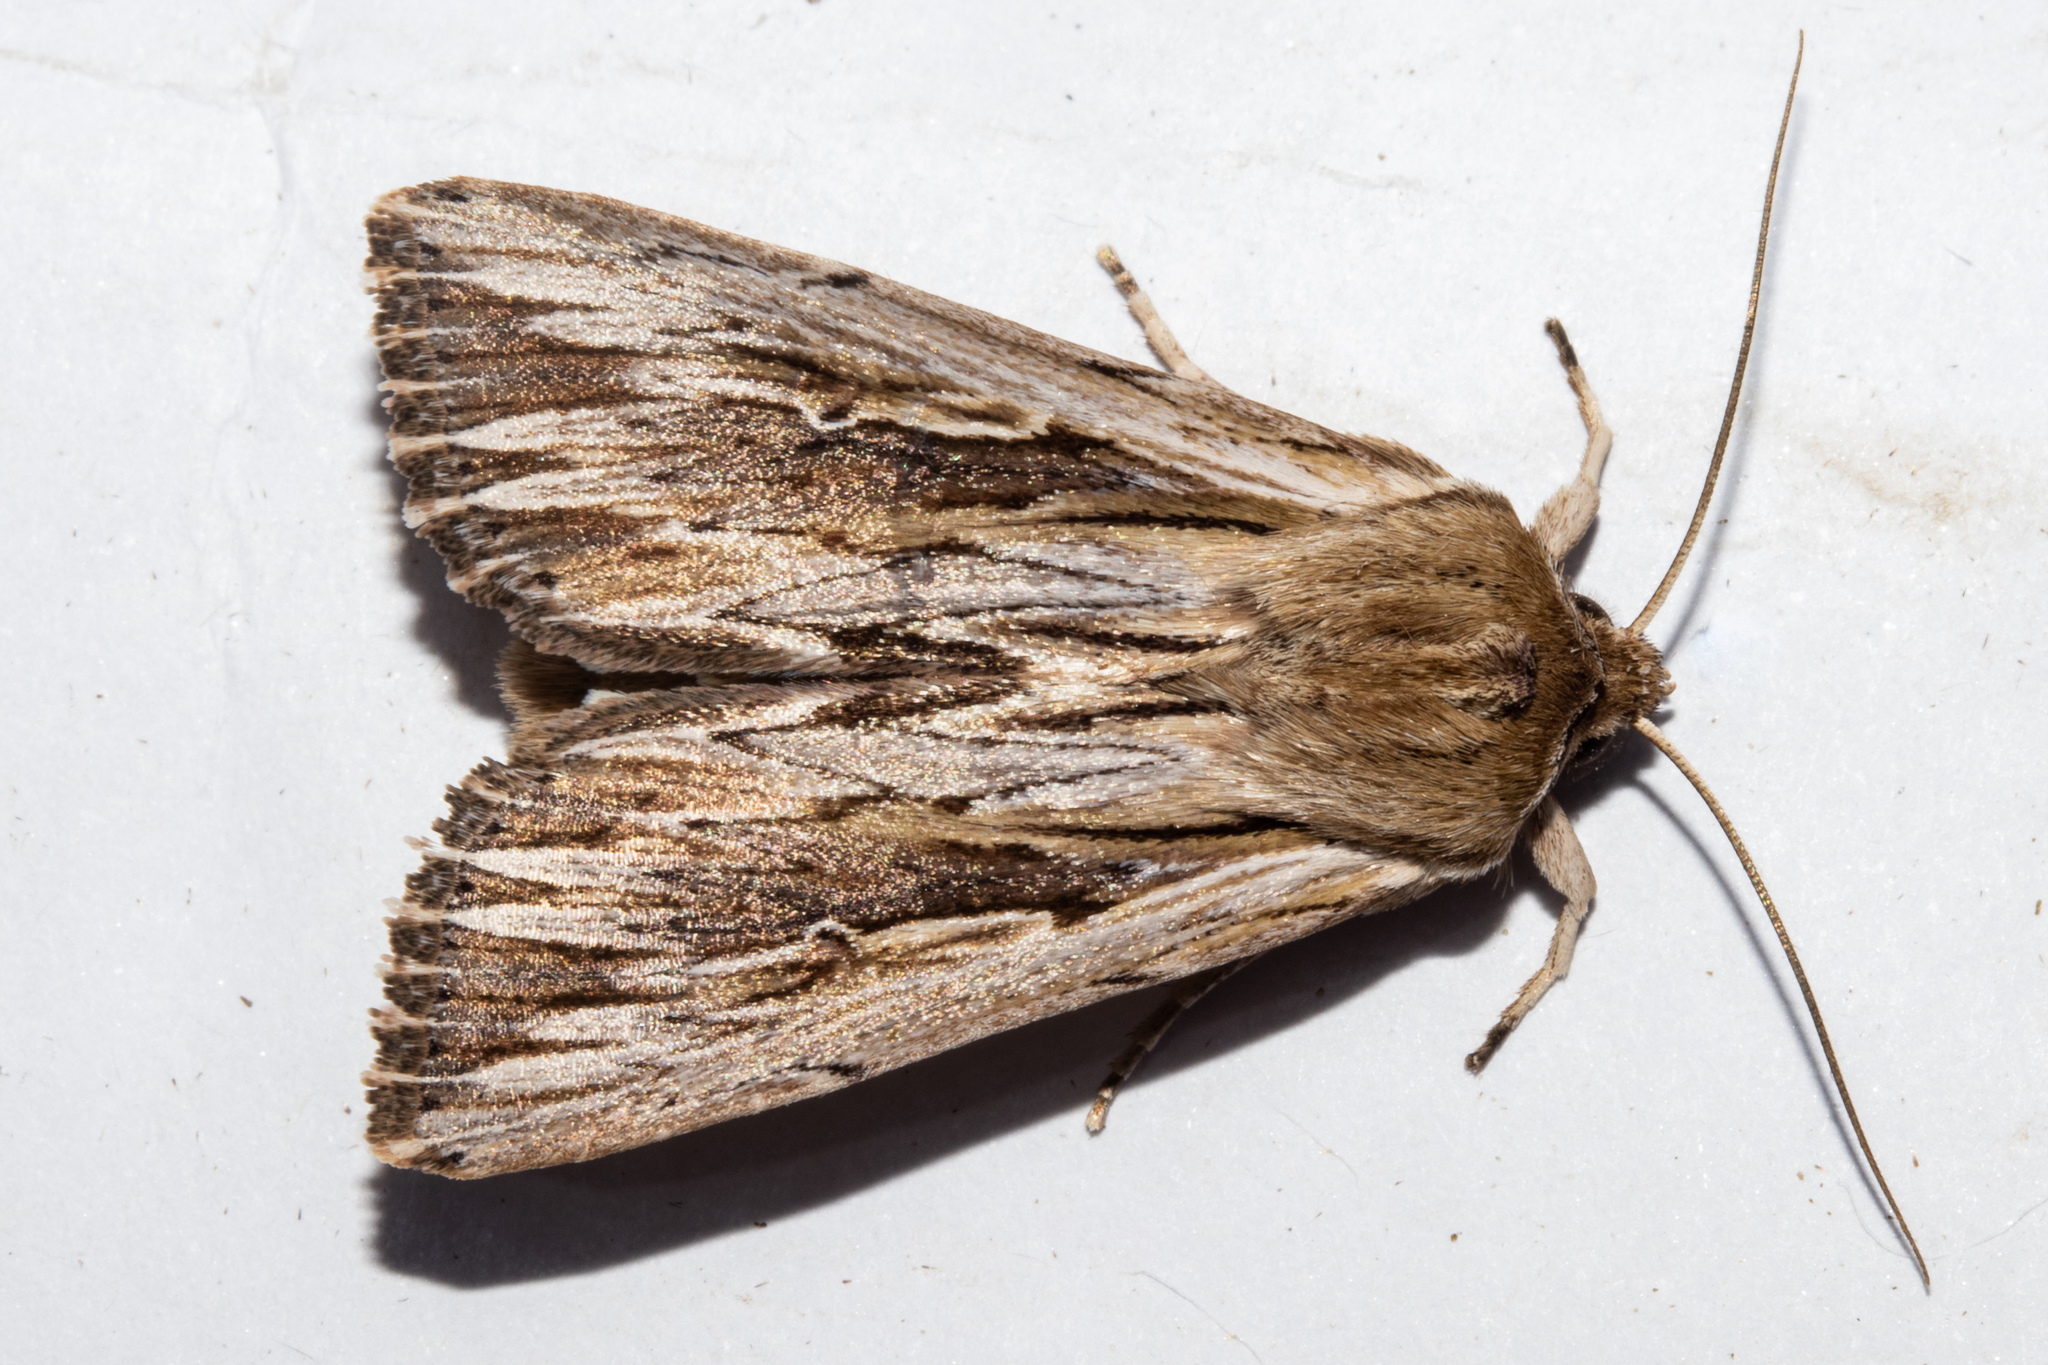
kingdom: Animalia
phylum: Arthropoda
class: Insecta
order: Lepidoptera
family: Noctuidae
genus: Persectania
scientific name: Persectania aversa
